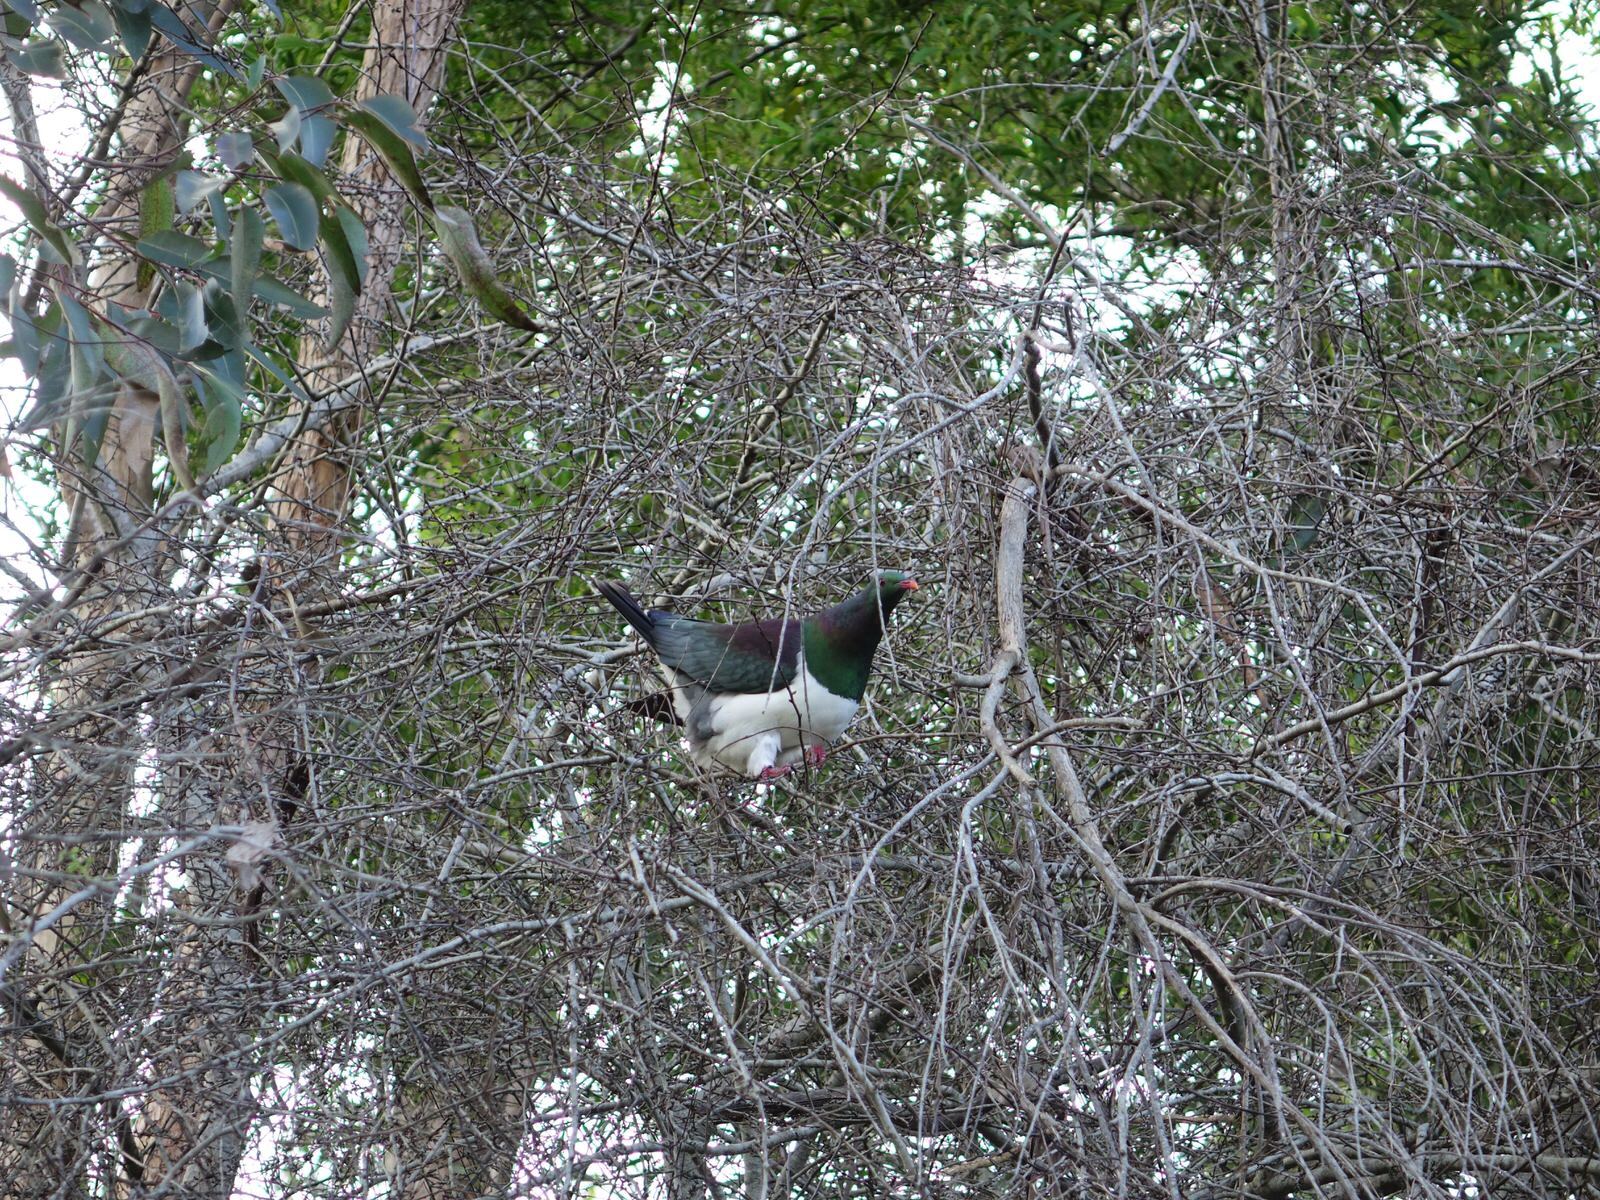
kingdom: Animalia
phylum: Chordata
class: Aves
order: Columbiformes
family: Columbidae
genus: Hemiphaga
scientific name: Hemiphaga novaeseelandiae
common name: New zealand pigeon
